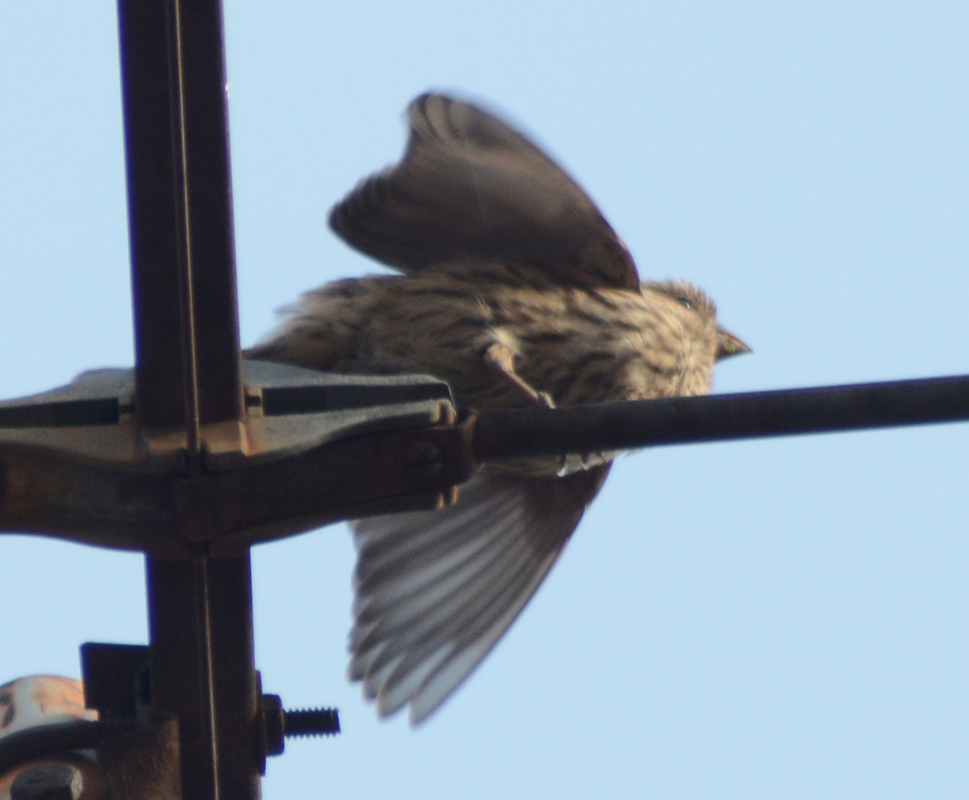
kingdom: Animalia
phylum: Chordata
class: Aves
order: Passeriformes
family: Fringillidae
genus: Haemorhous
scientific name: Haemorhous mexicanus
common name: House finch
